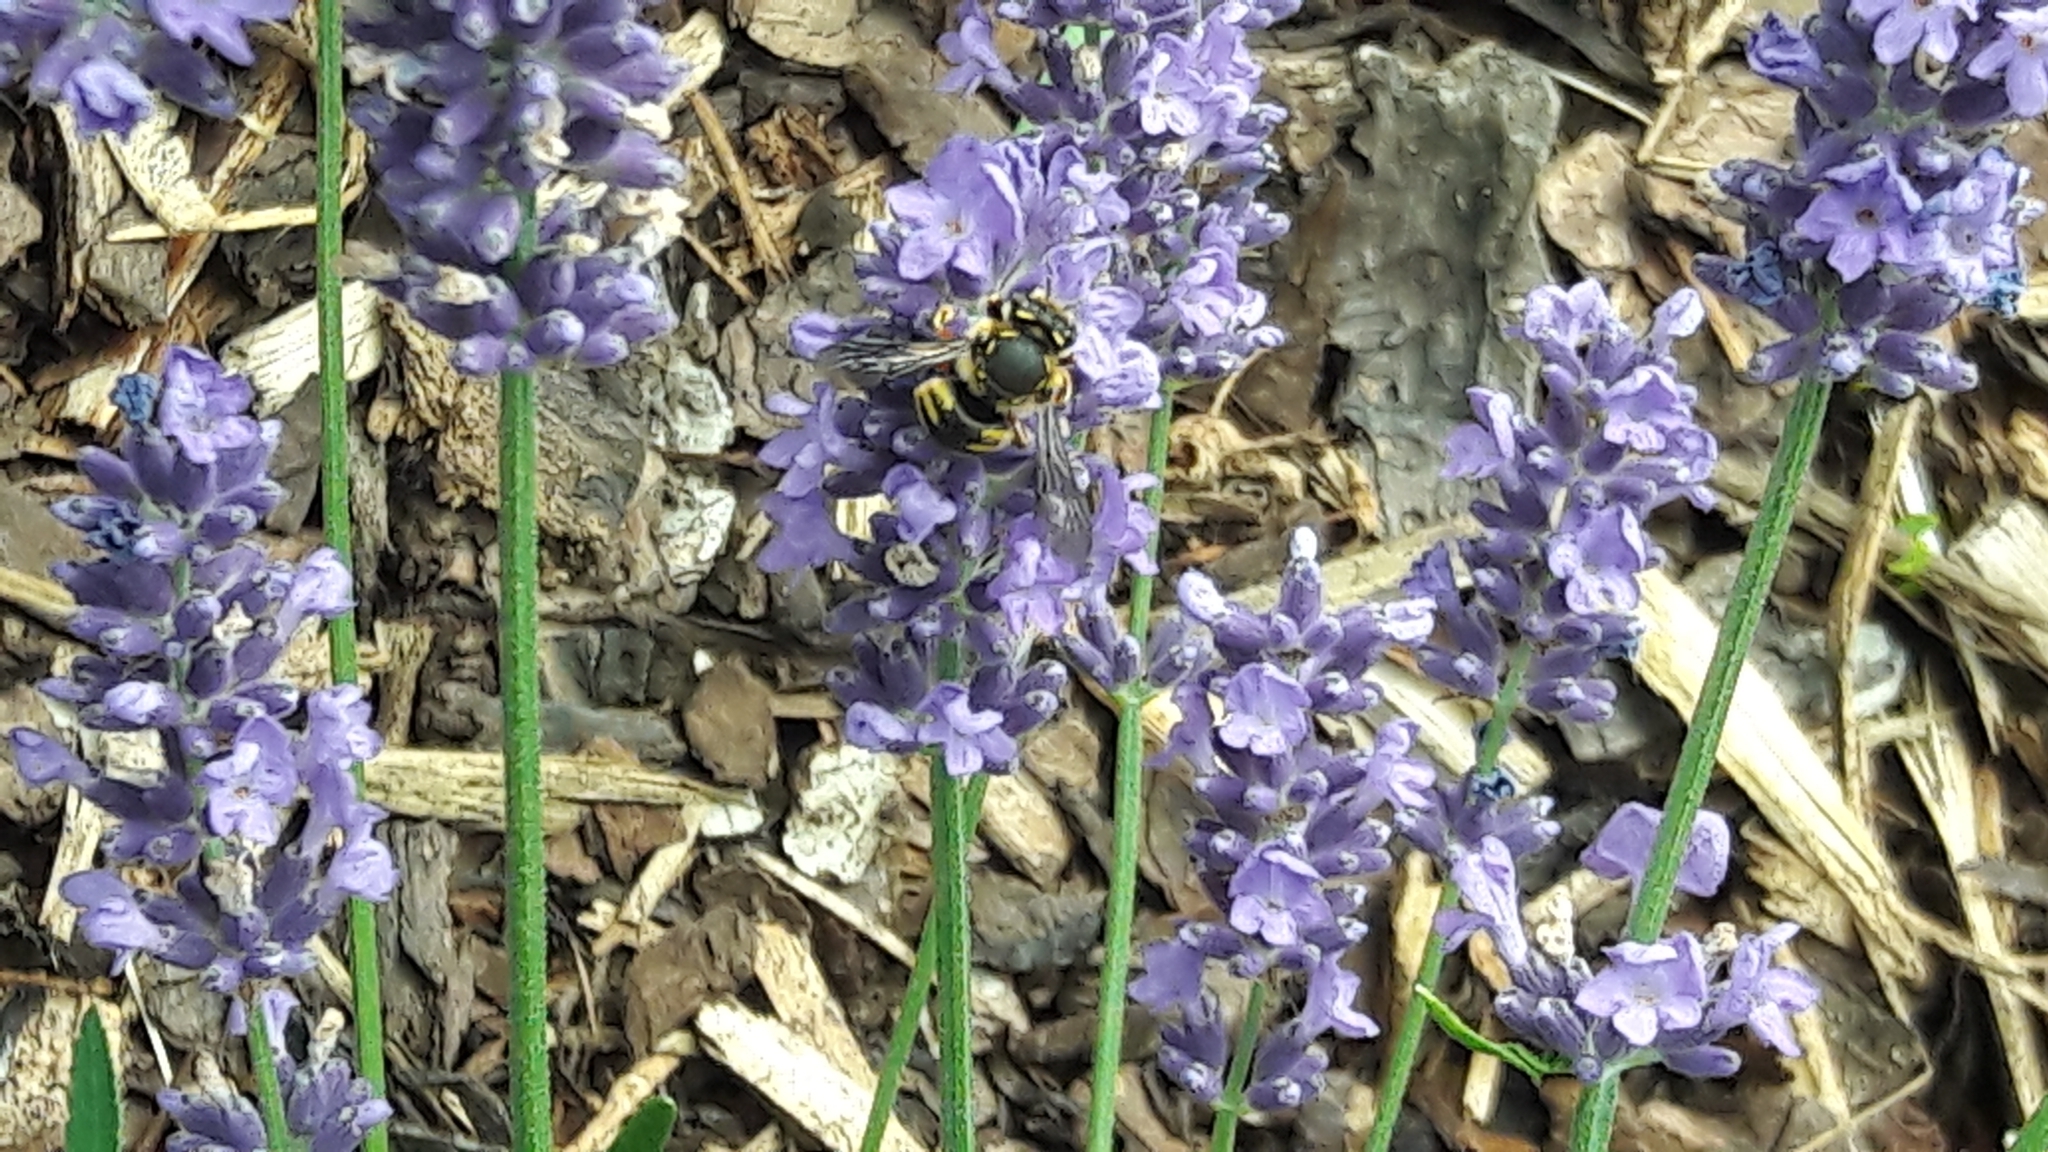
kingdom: Animalia
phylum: Arthropoda
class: Insecta
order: Hymenoptera
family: Megachilidae
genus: Anthidium
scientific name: Anthidium manicatum
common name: Wool carder bee
